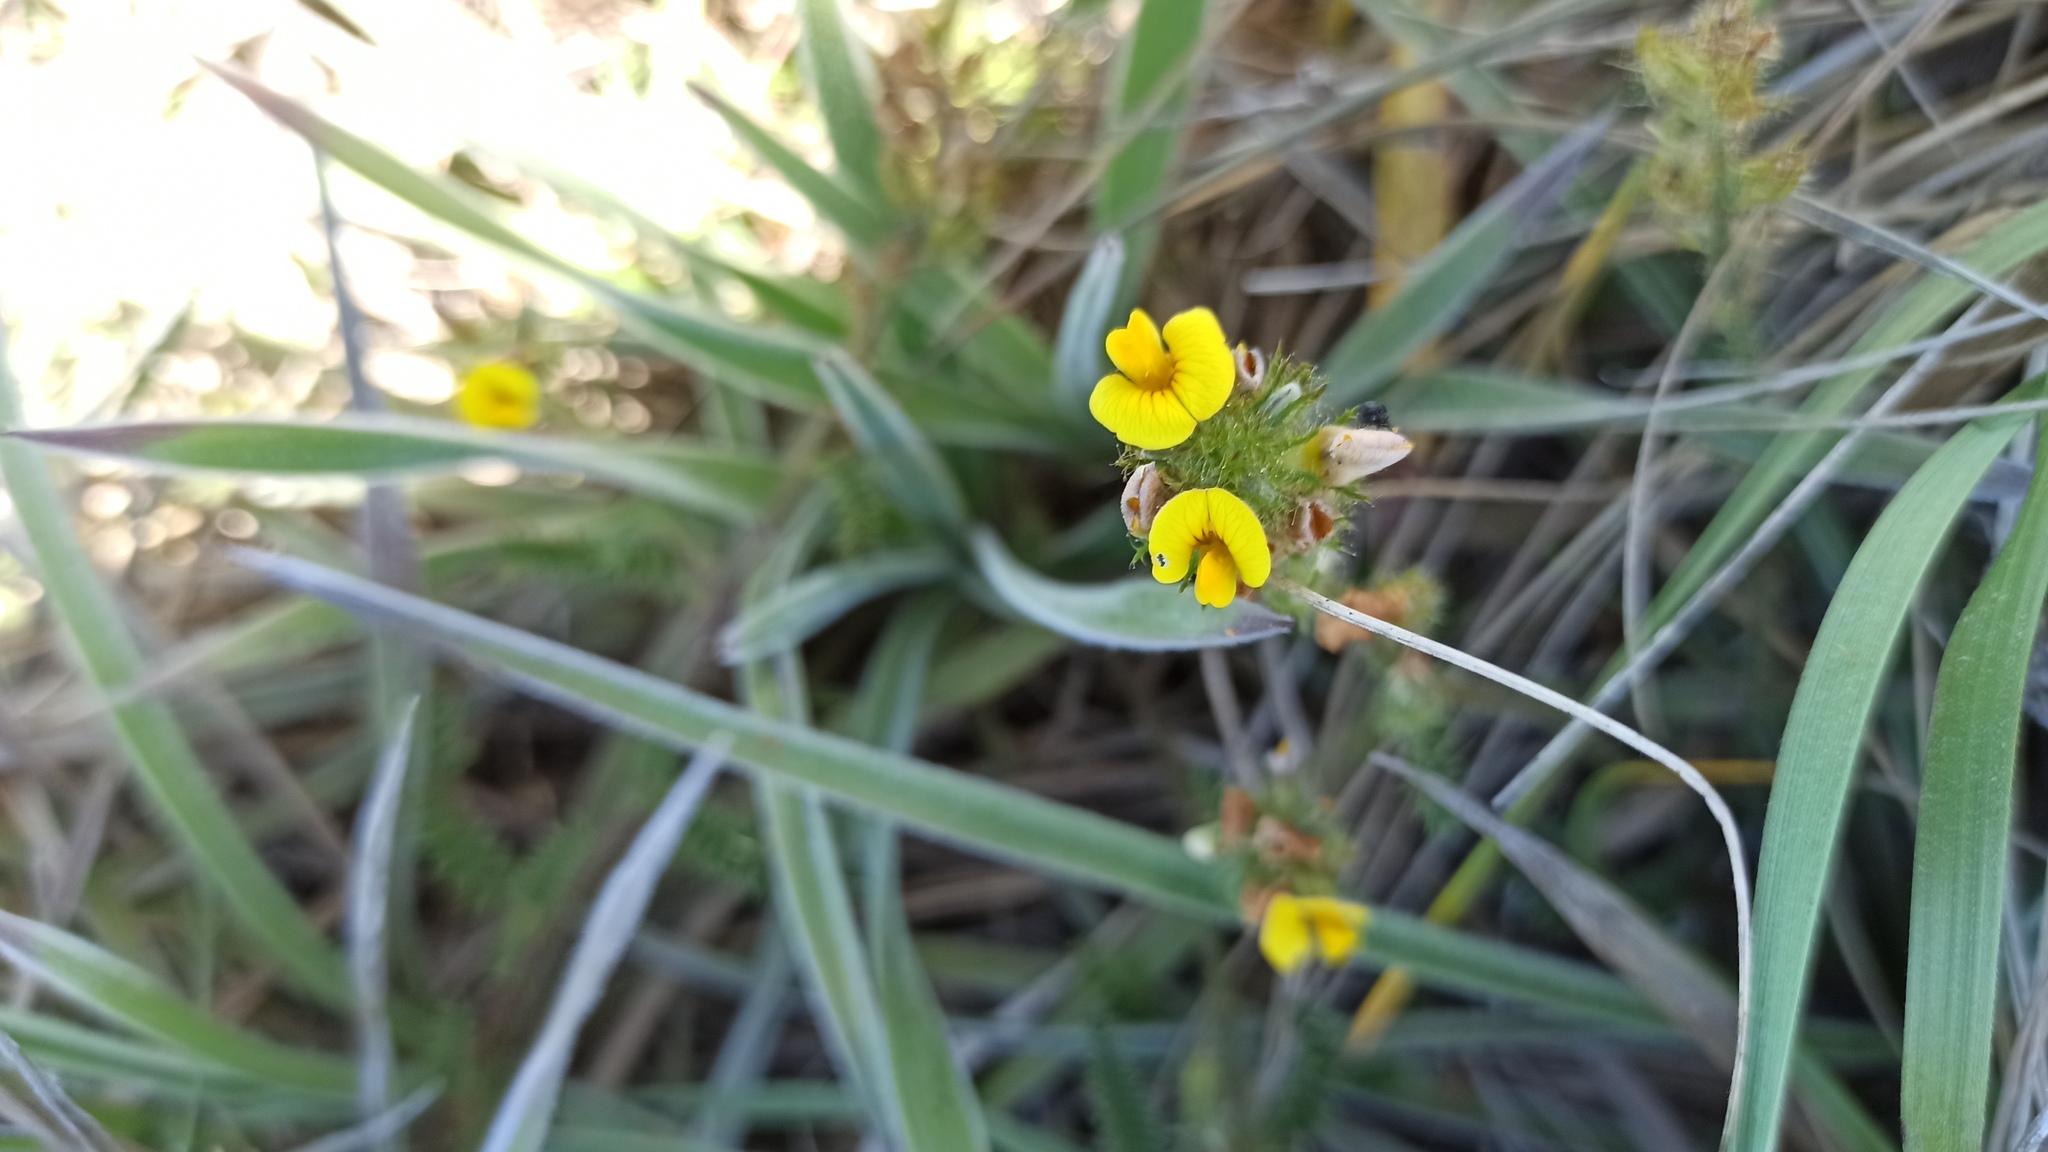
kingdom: Plantae
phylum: Tracheophyta
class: Magnoliopsida
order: Fabales
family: Fabaceae
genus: Adesmia
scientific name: Adesmia punctata
